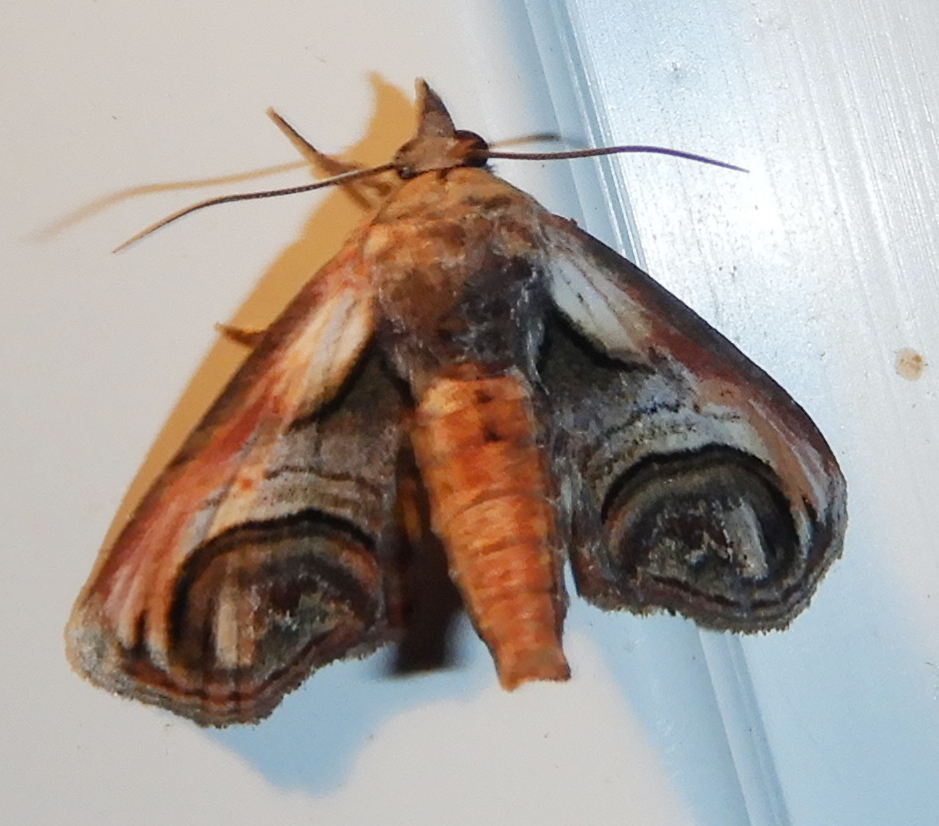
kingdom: Animalia
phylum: Arthropoda
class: Insecta
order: Lepidoptera
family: Euteliidae
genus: Paectes
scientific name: Paectes oculatrix
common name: Eyed paectes moth
